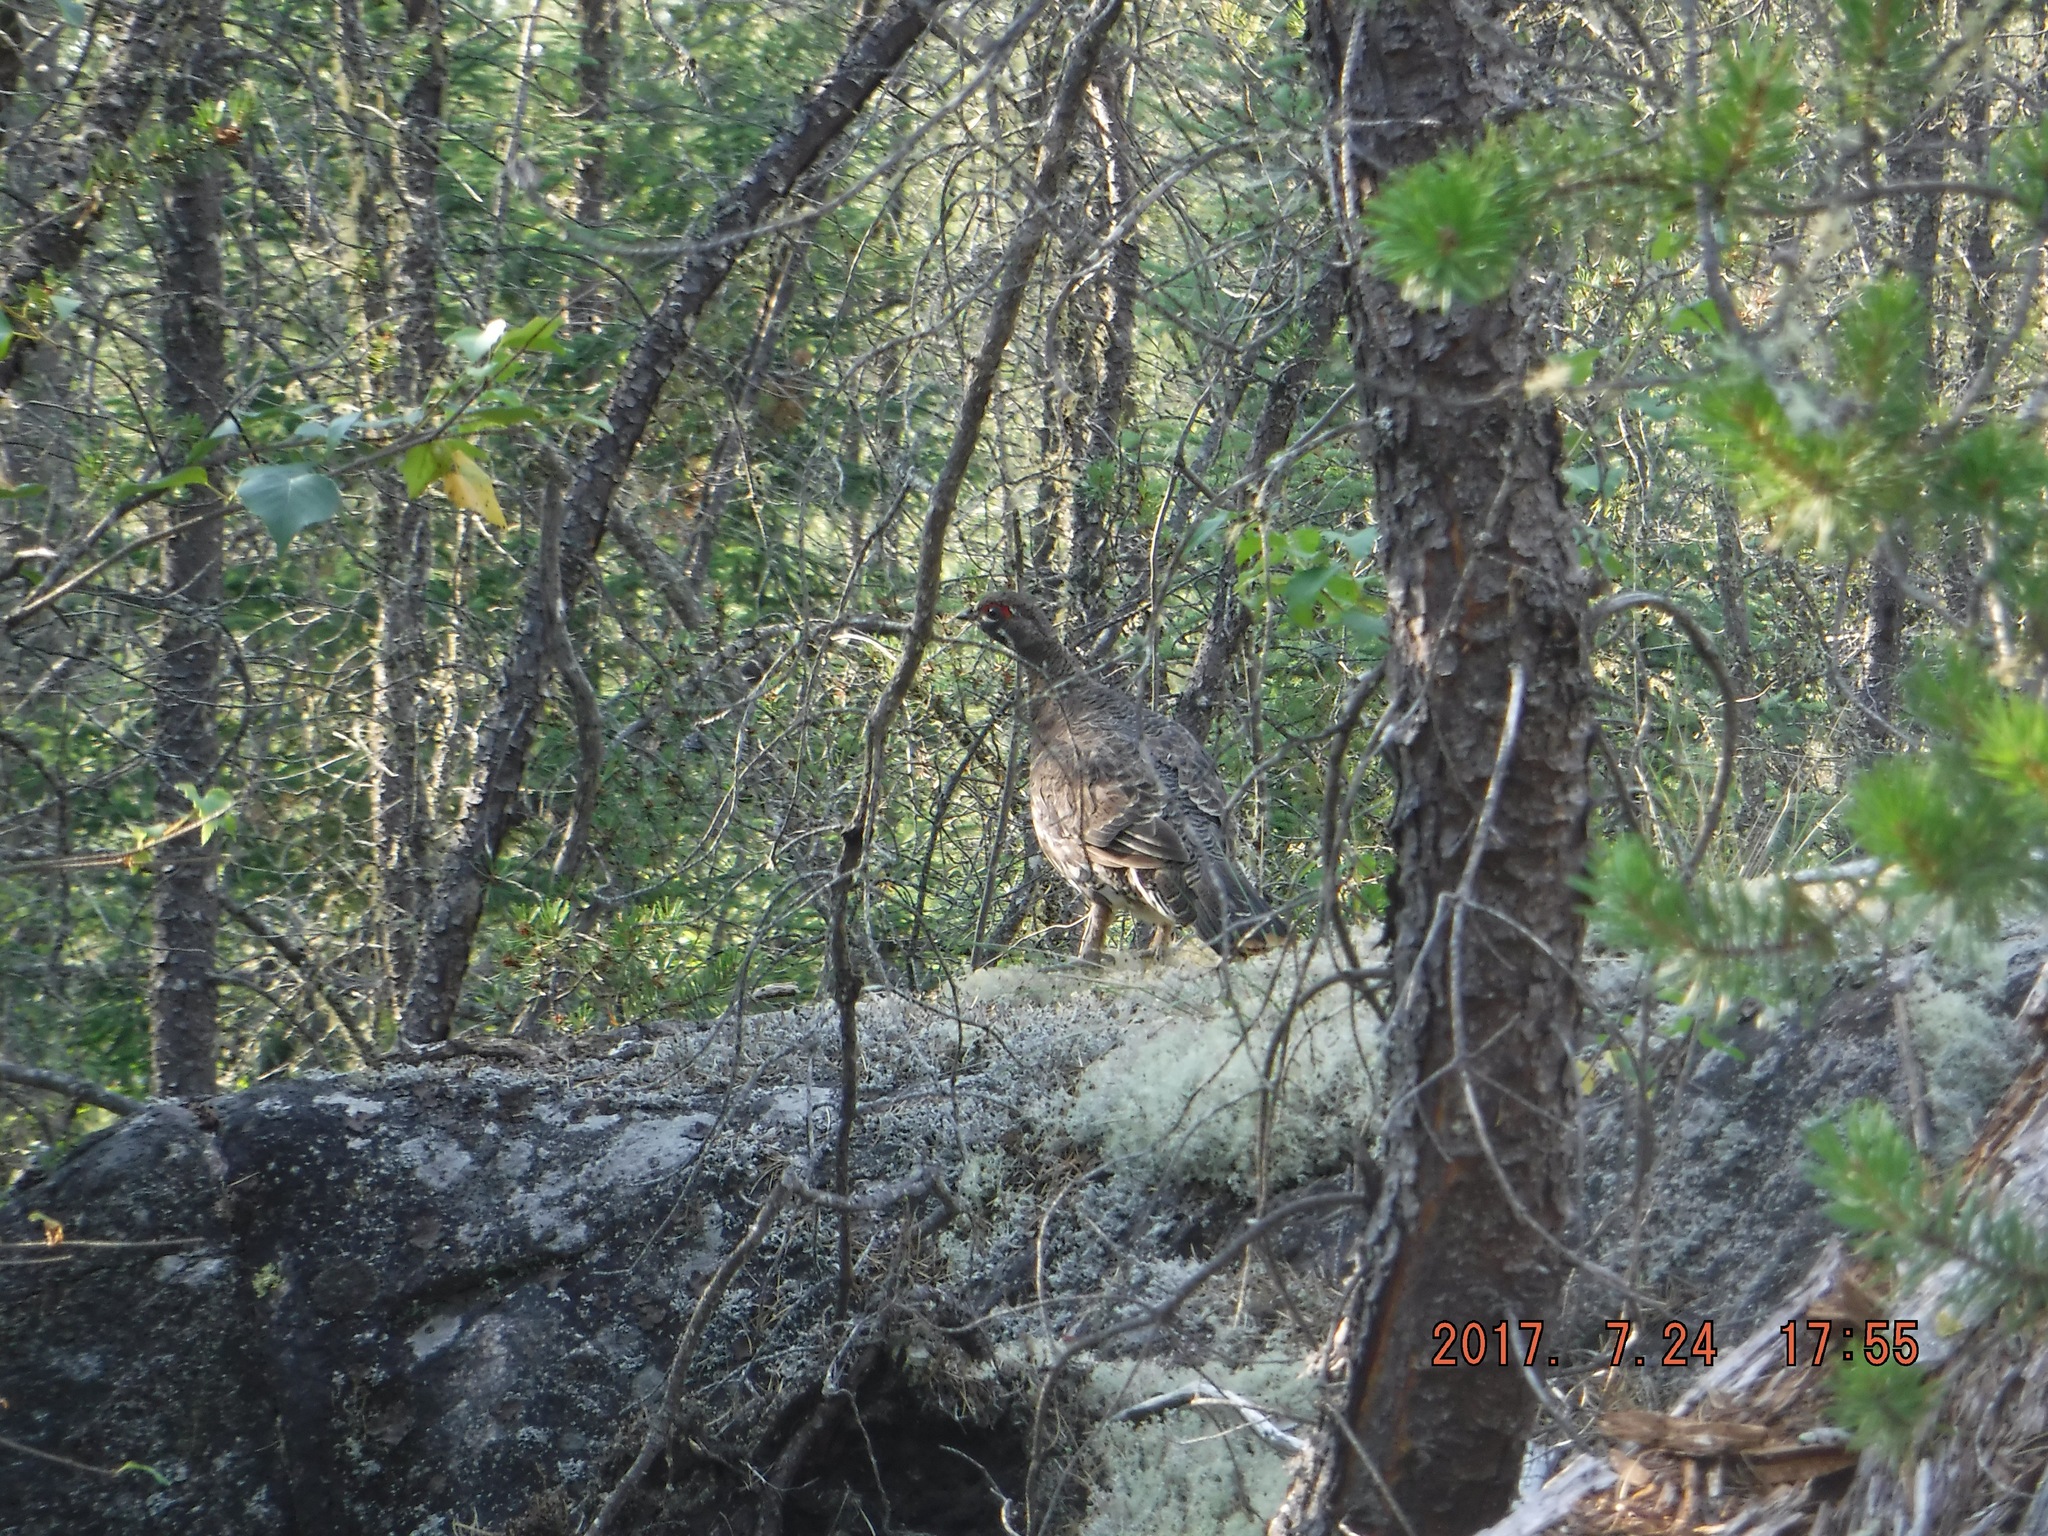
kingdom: Animalia
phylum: Chordata
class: Aves
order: Galliformes
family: Phasianidae
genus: Canachites
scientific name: Canachites canadensis
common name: Spruce grouse
